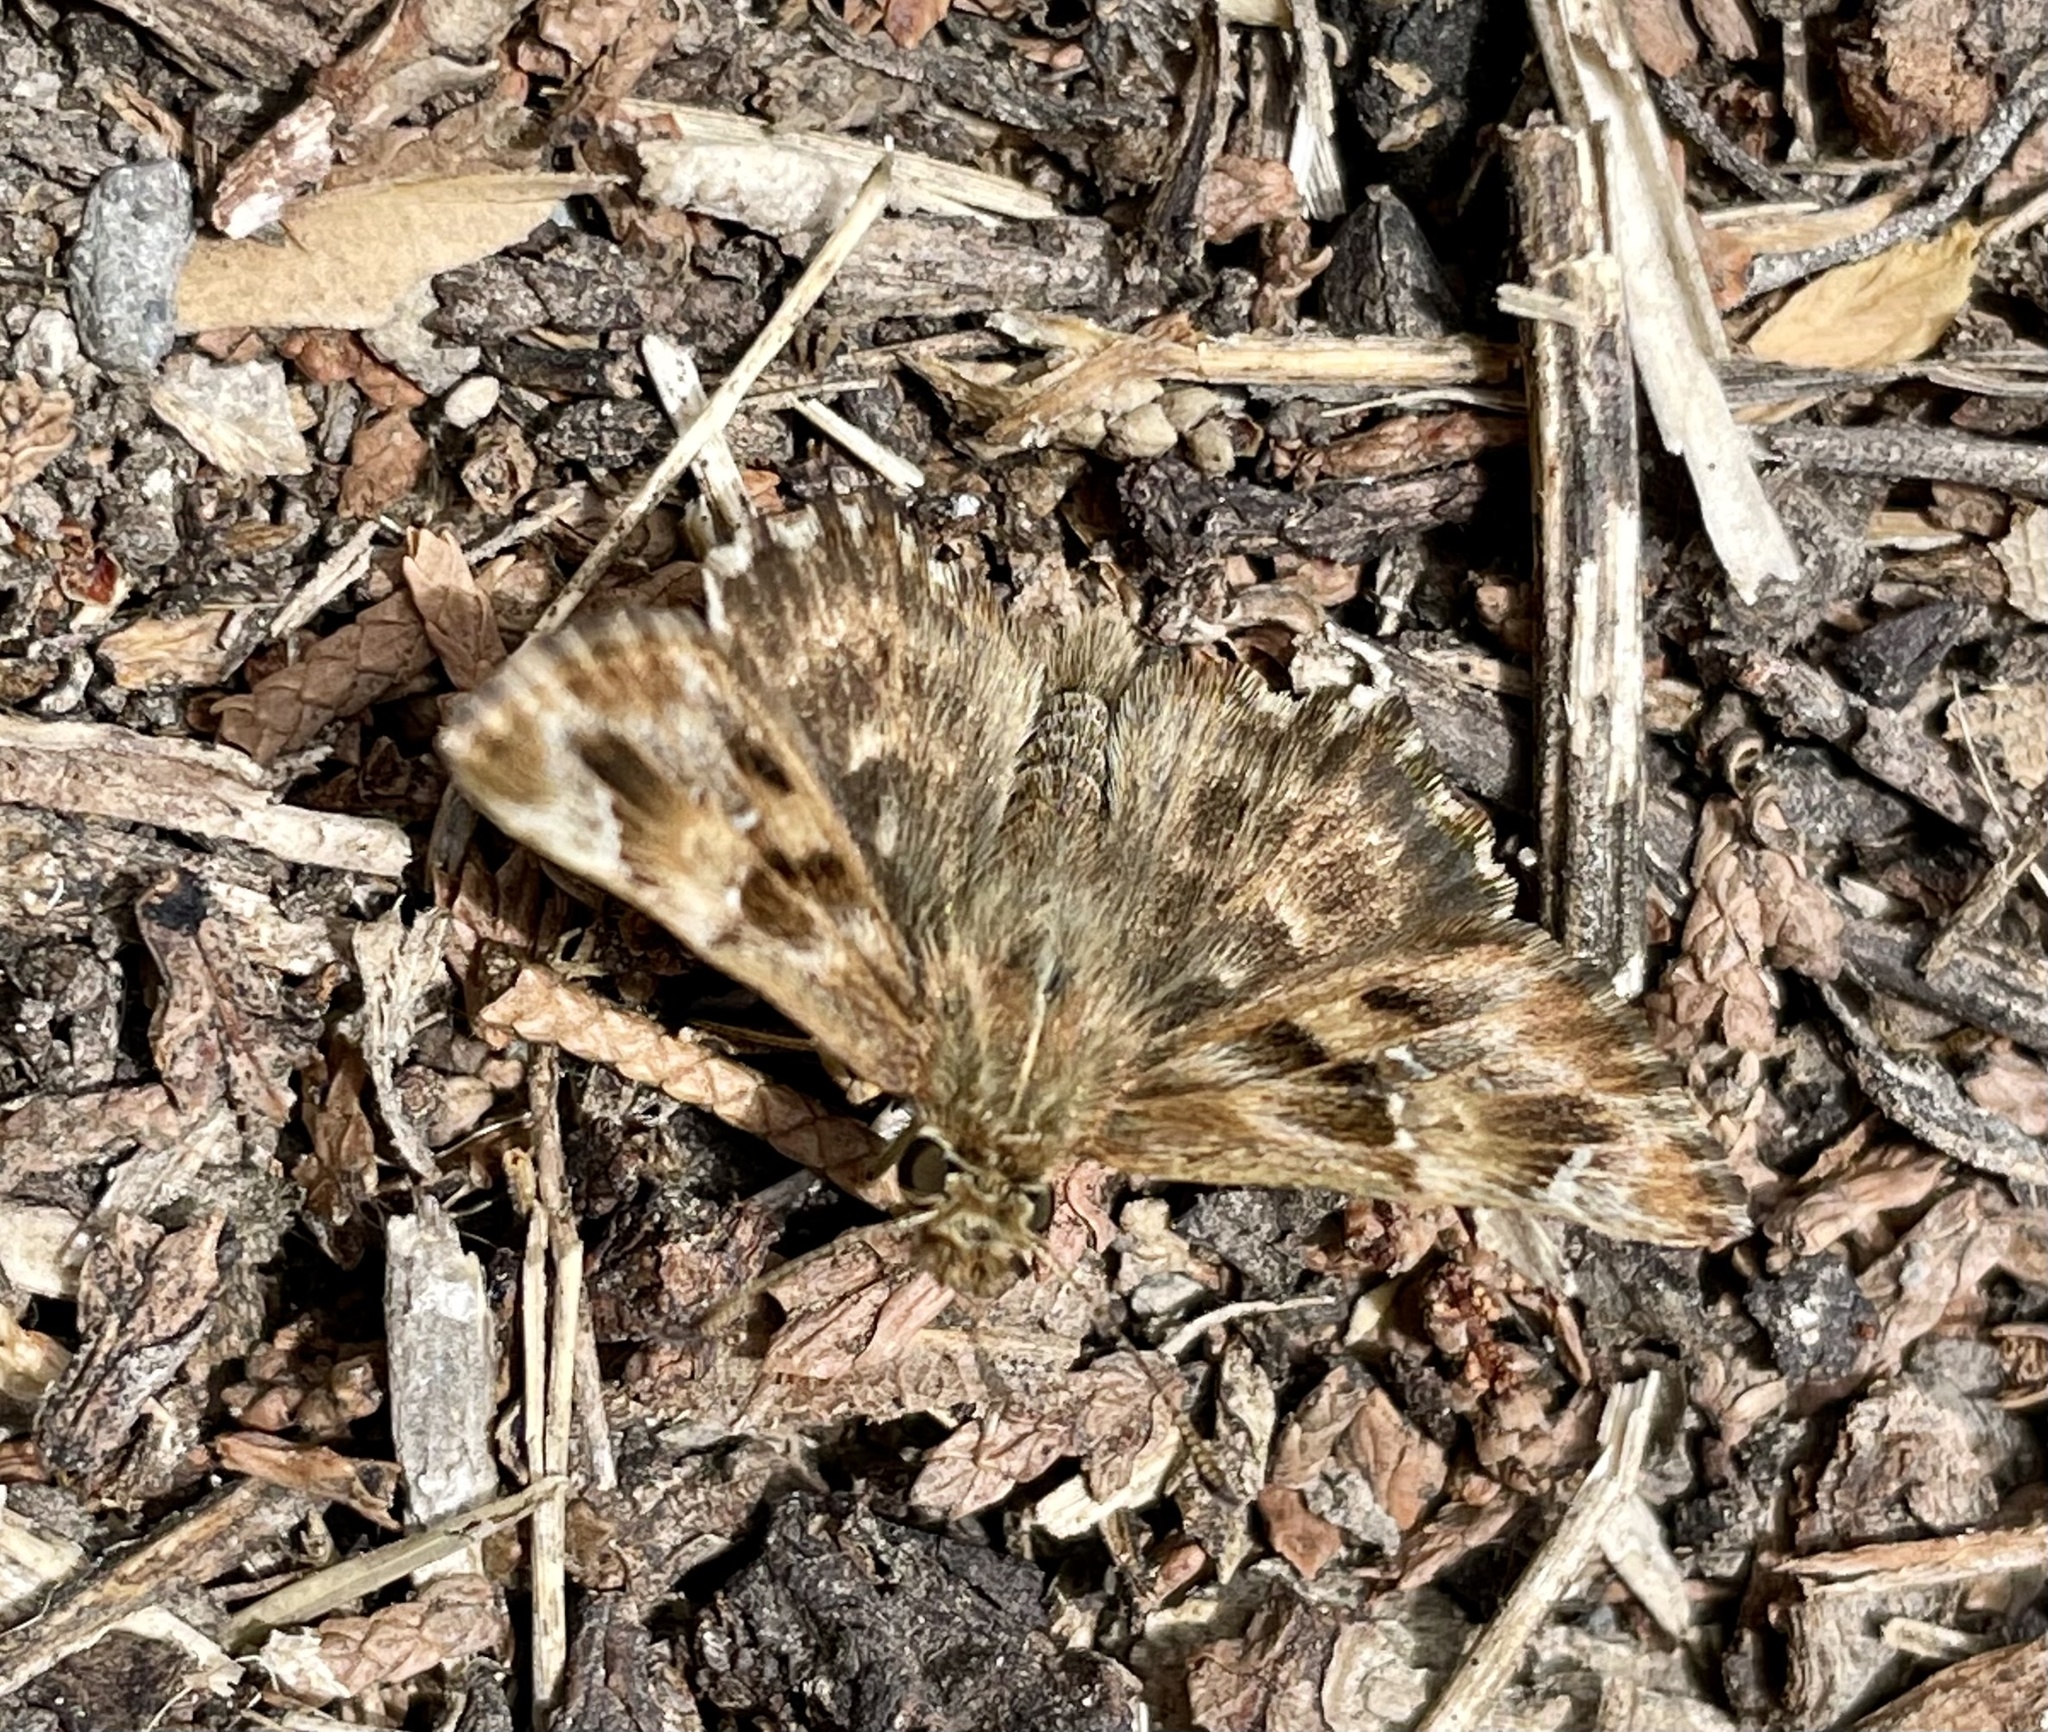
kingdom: Animalia
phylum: Arthropoda
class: Insecta
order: Lepidoptera
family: Hesperiidae
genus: Carcharodus
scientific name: Carcharodus alceae
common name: Mallow skipper
